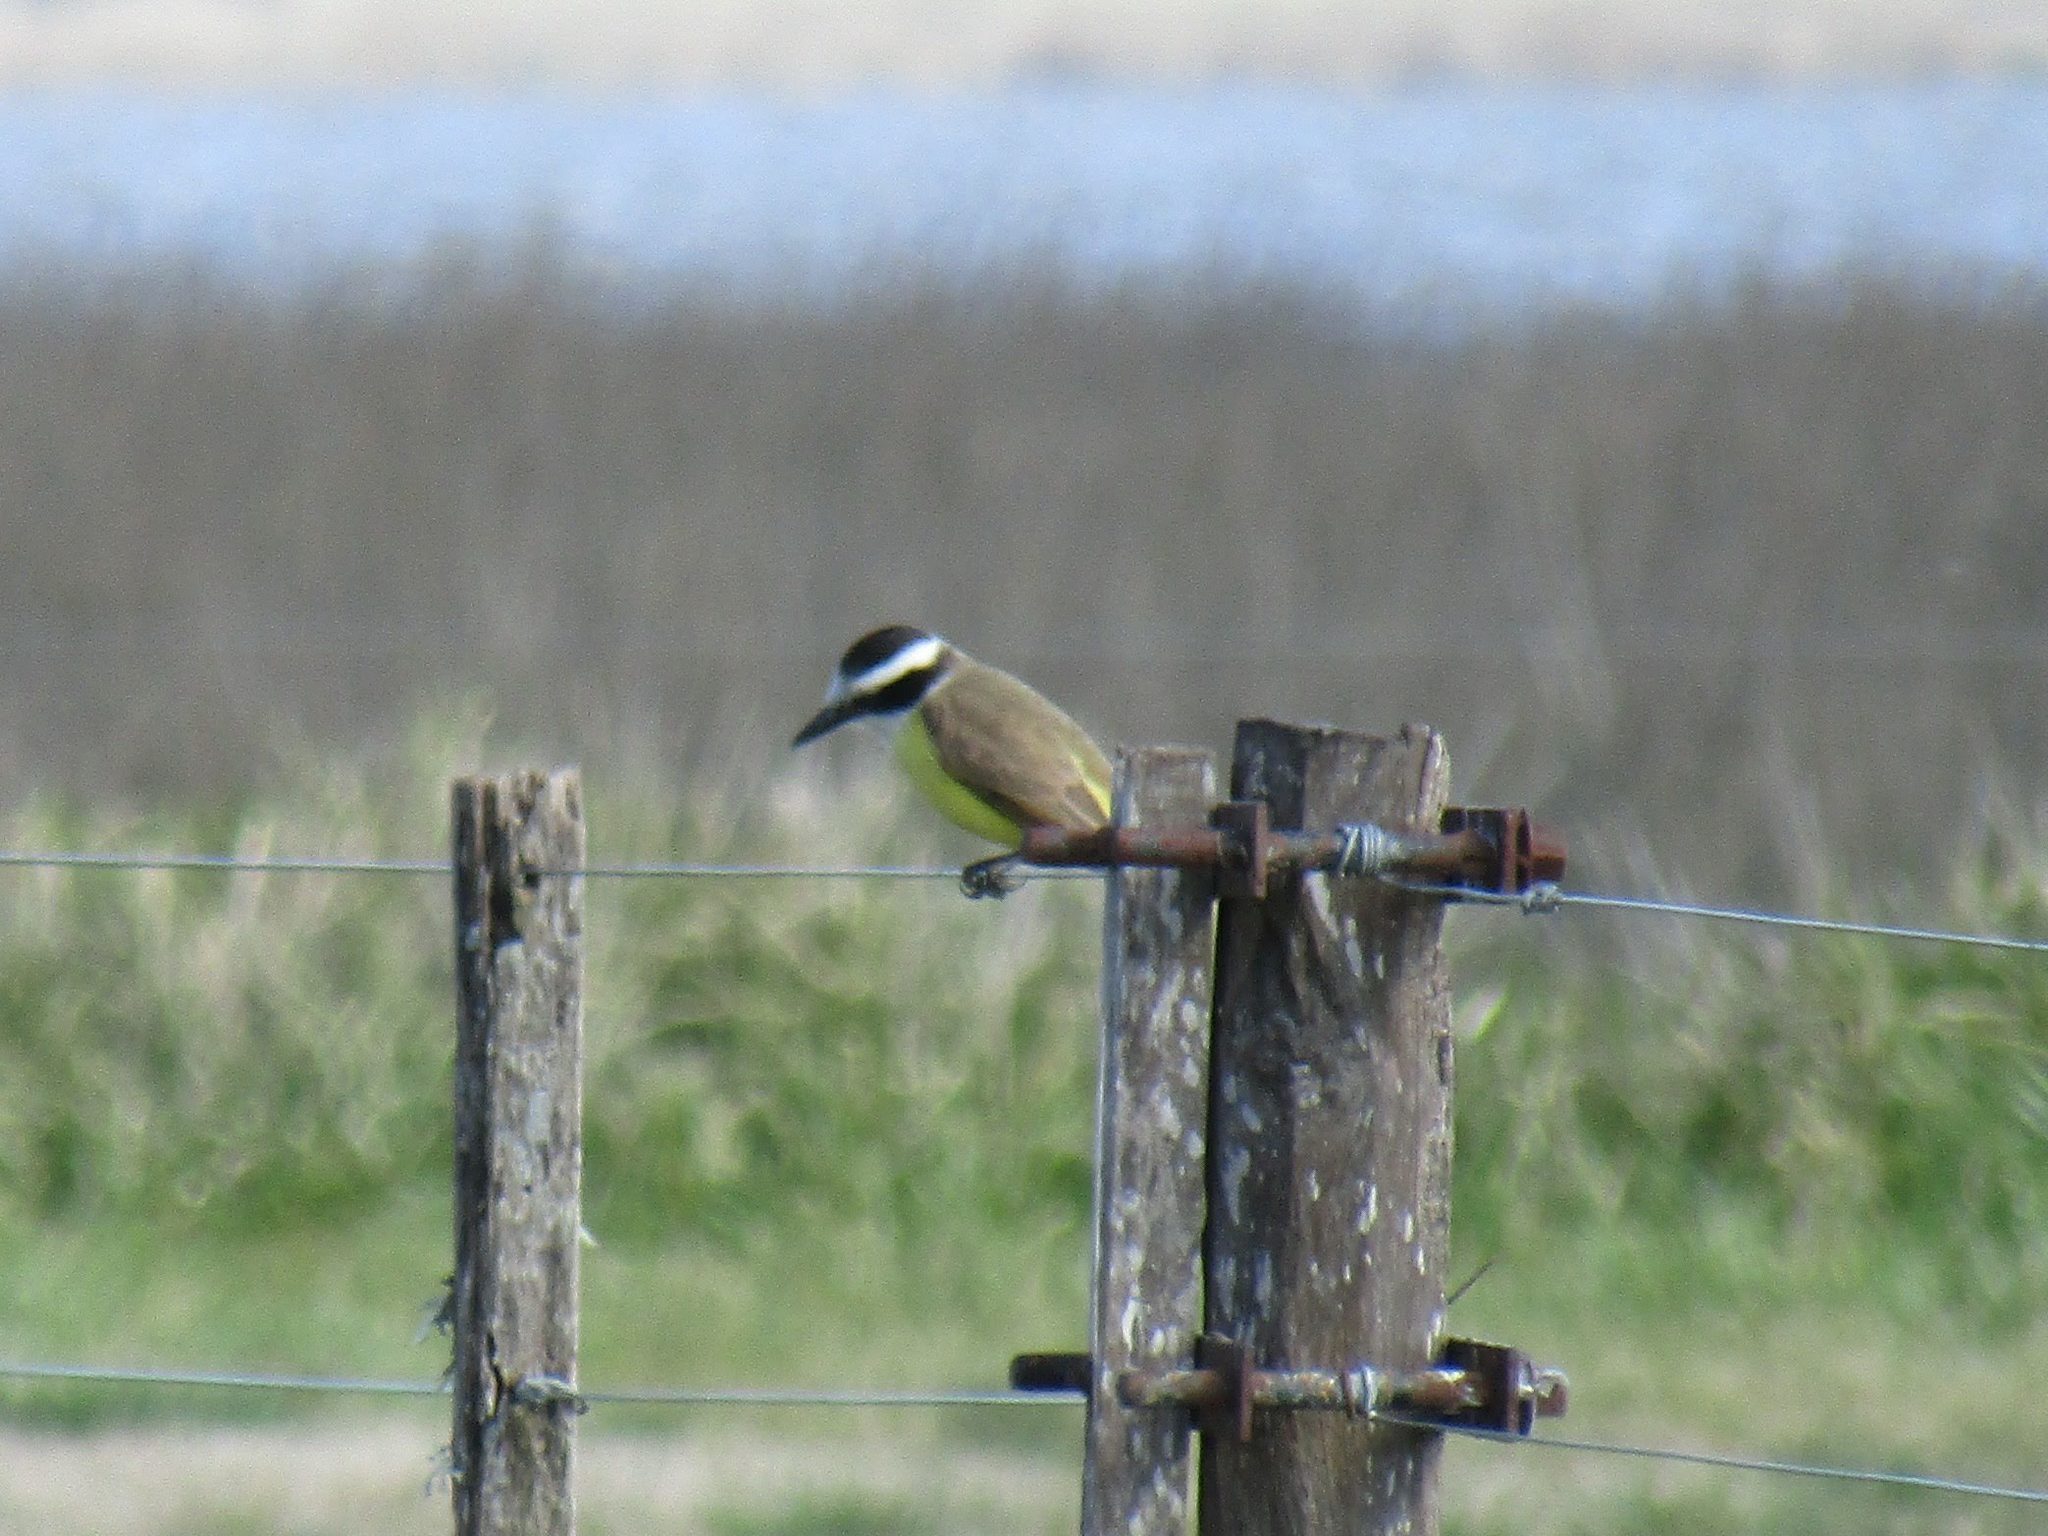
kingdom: Animalia
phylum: Chordata
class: Aves
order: Passeriformes
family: Tyrannidae
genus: Pitangus
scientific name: Pitangus sulphuratus
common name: Great kiskadee
